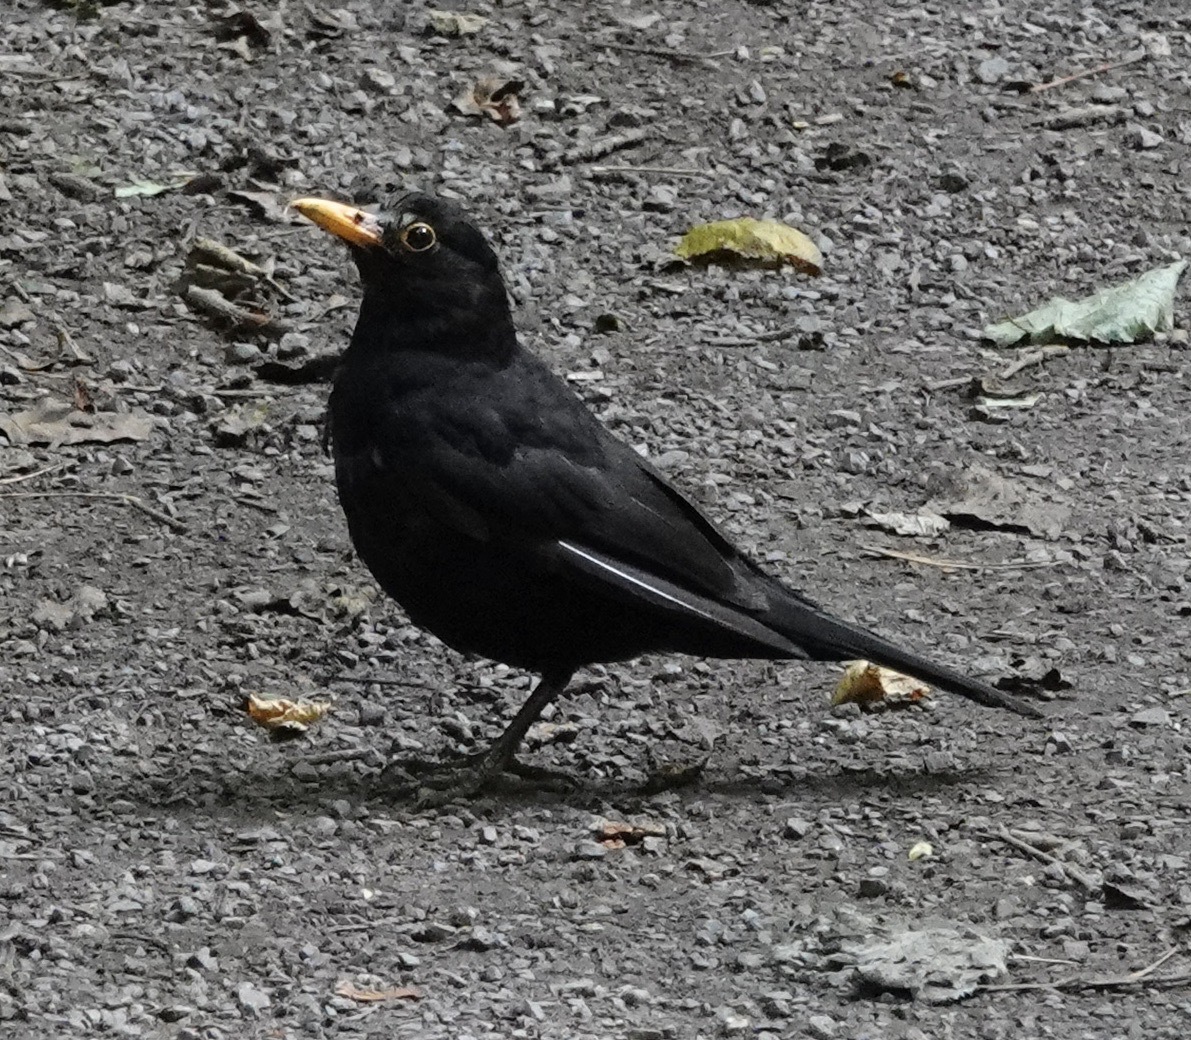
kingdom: Animalia
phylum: Chordata
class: Aves
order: Passeriformes
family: Turdidae
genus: Turdus
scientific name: Turdus merula
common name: Common blackbird
